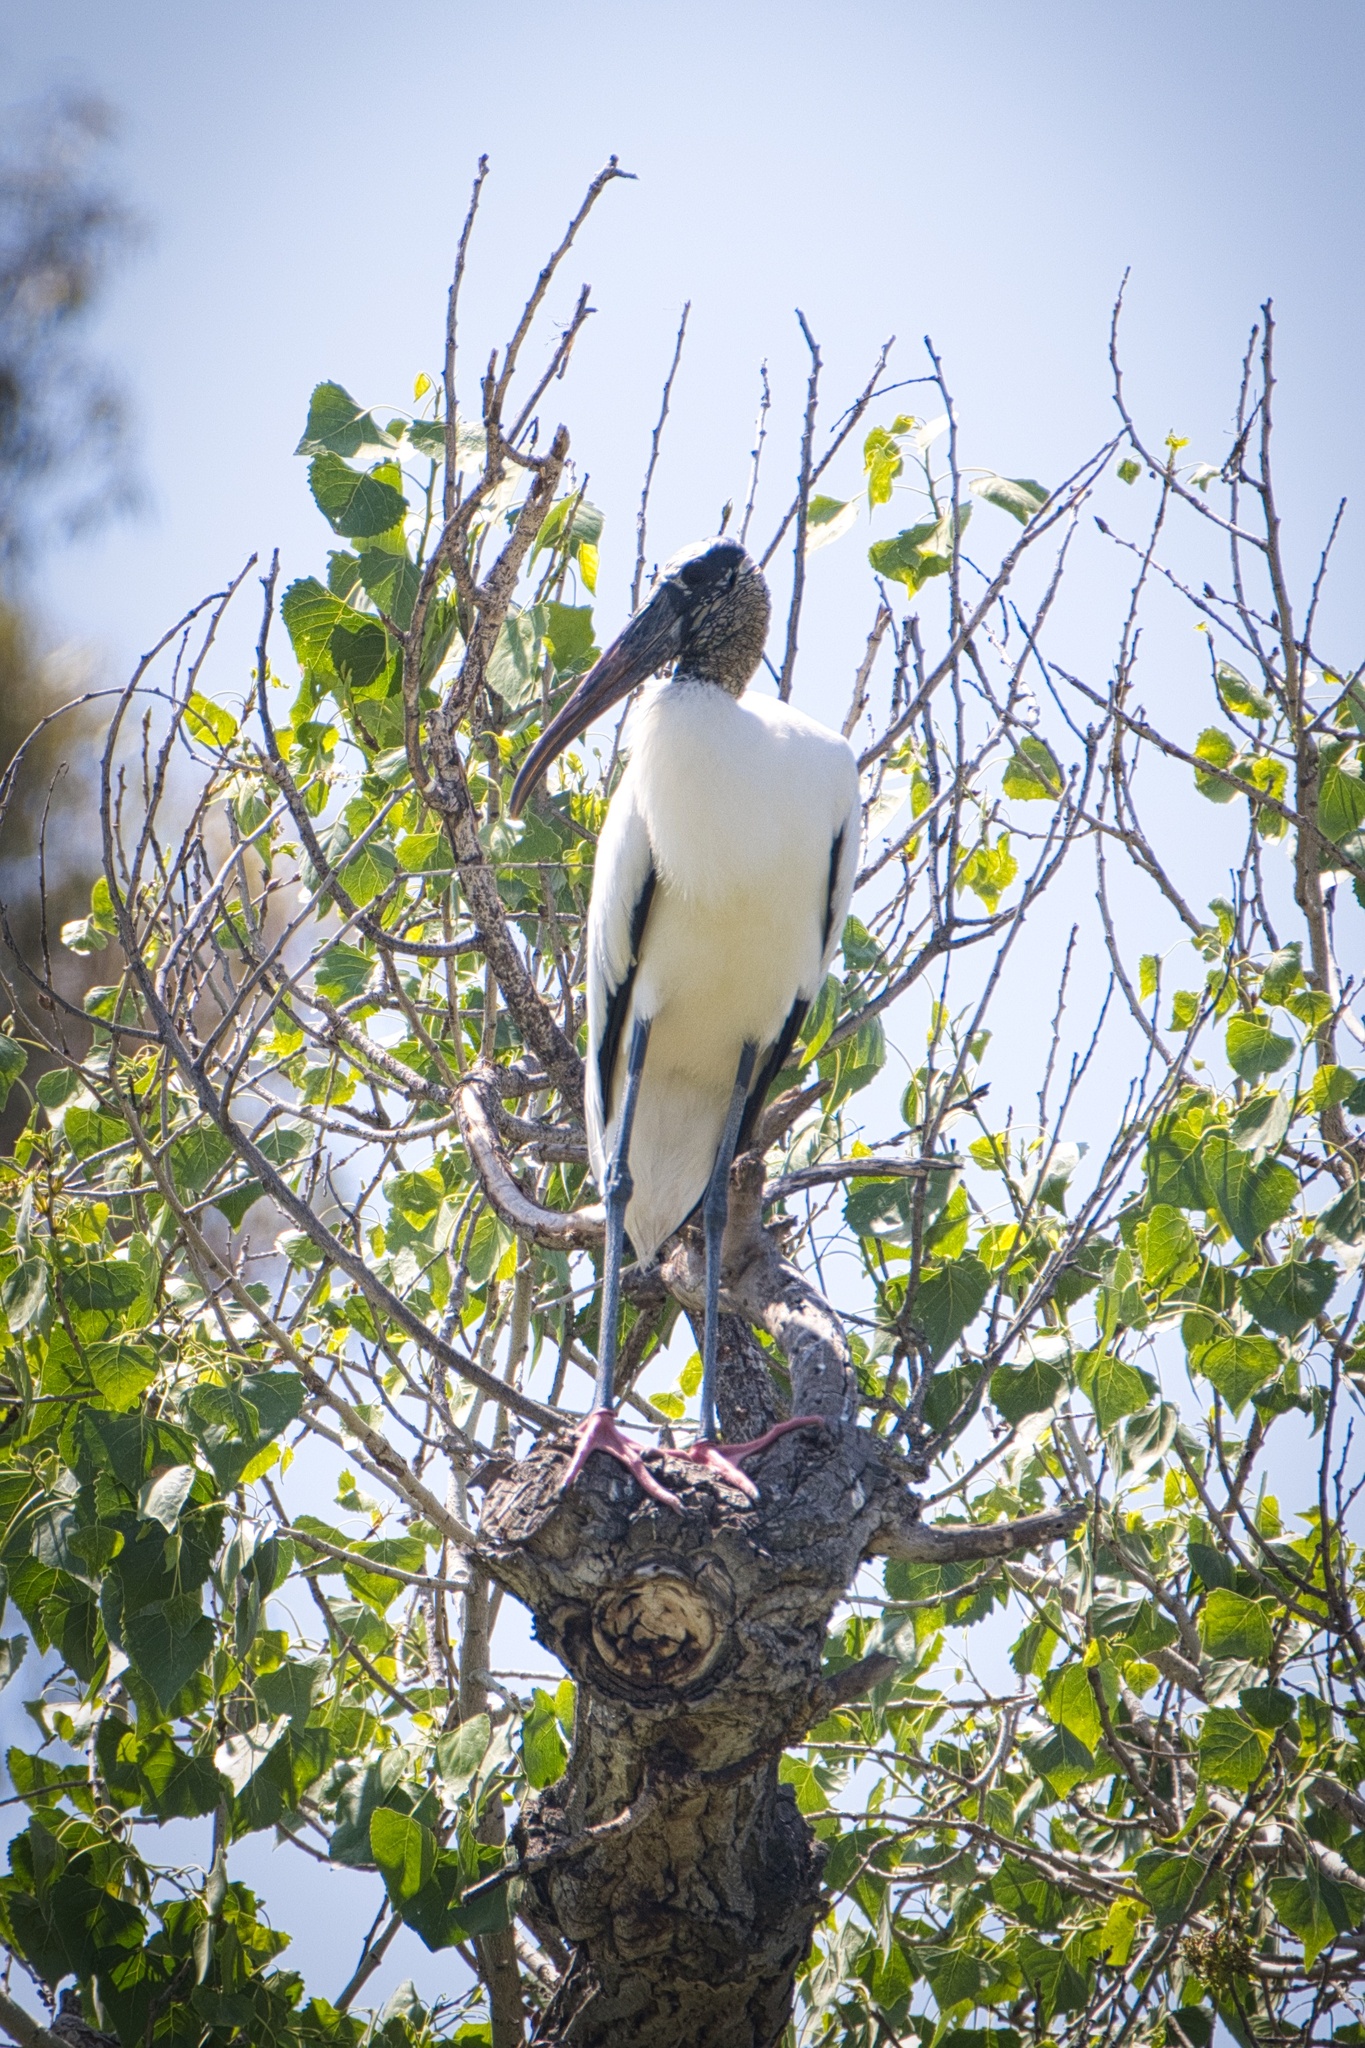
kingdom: Animalia
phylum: Chordata
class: Aves
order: Ciconiiformes
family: Ciconiidae
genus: Mycteria
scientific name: Mycteria americana
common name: Wood stork
